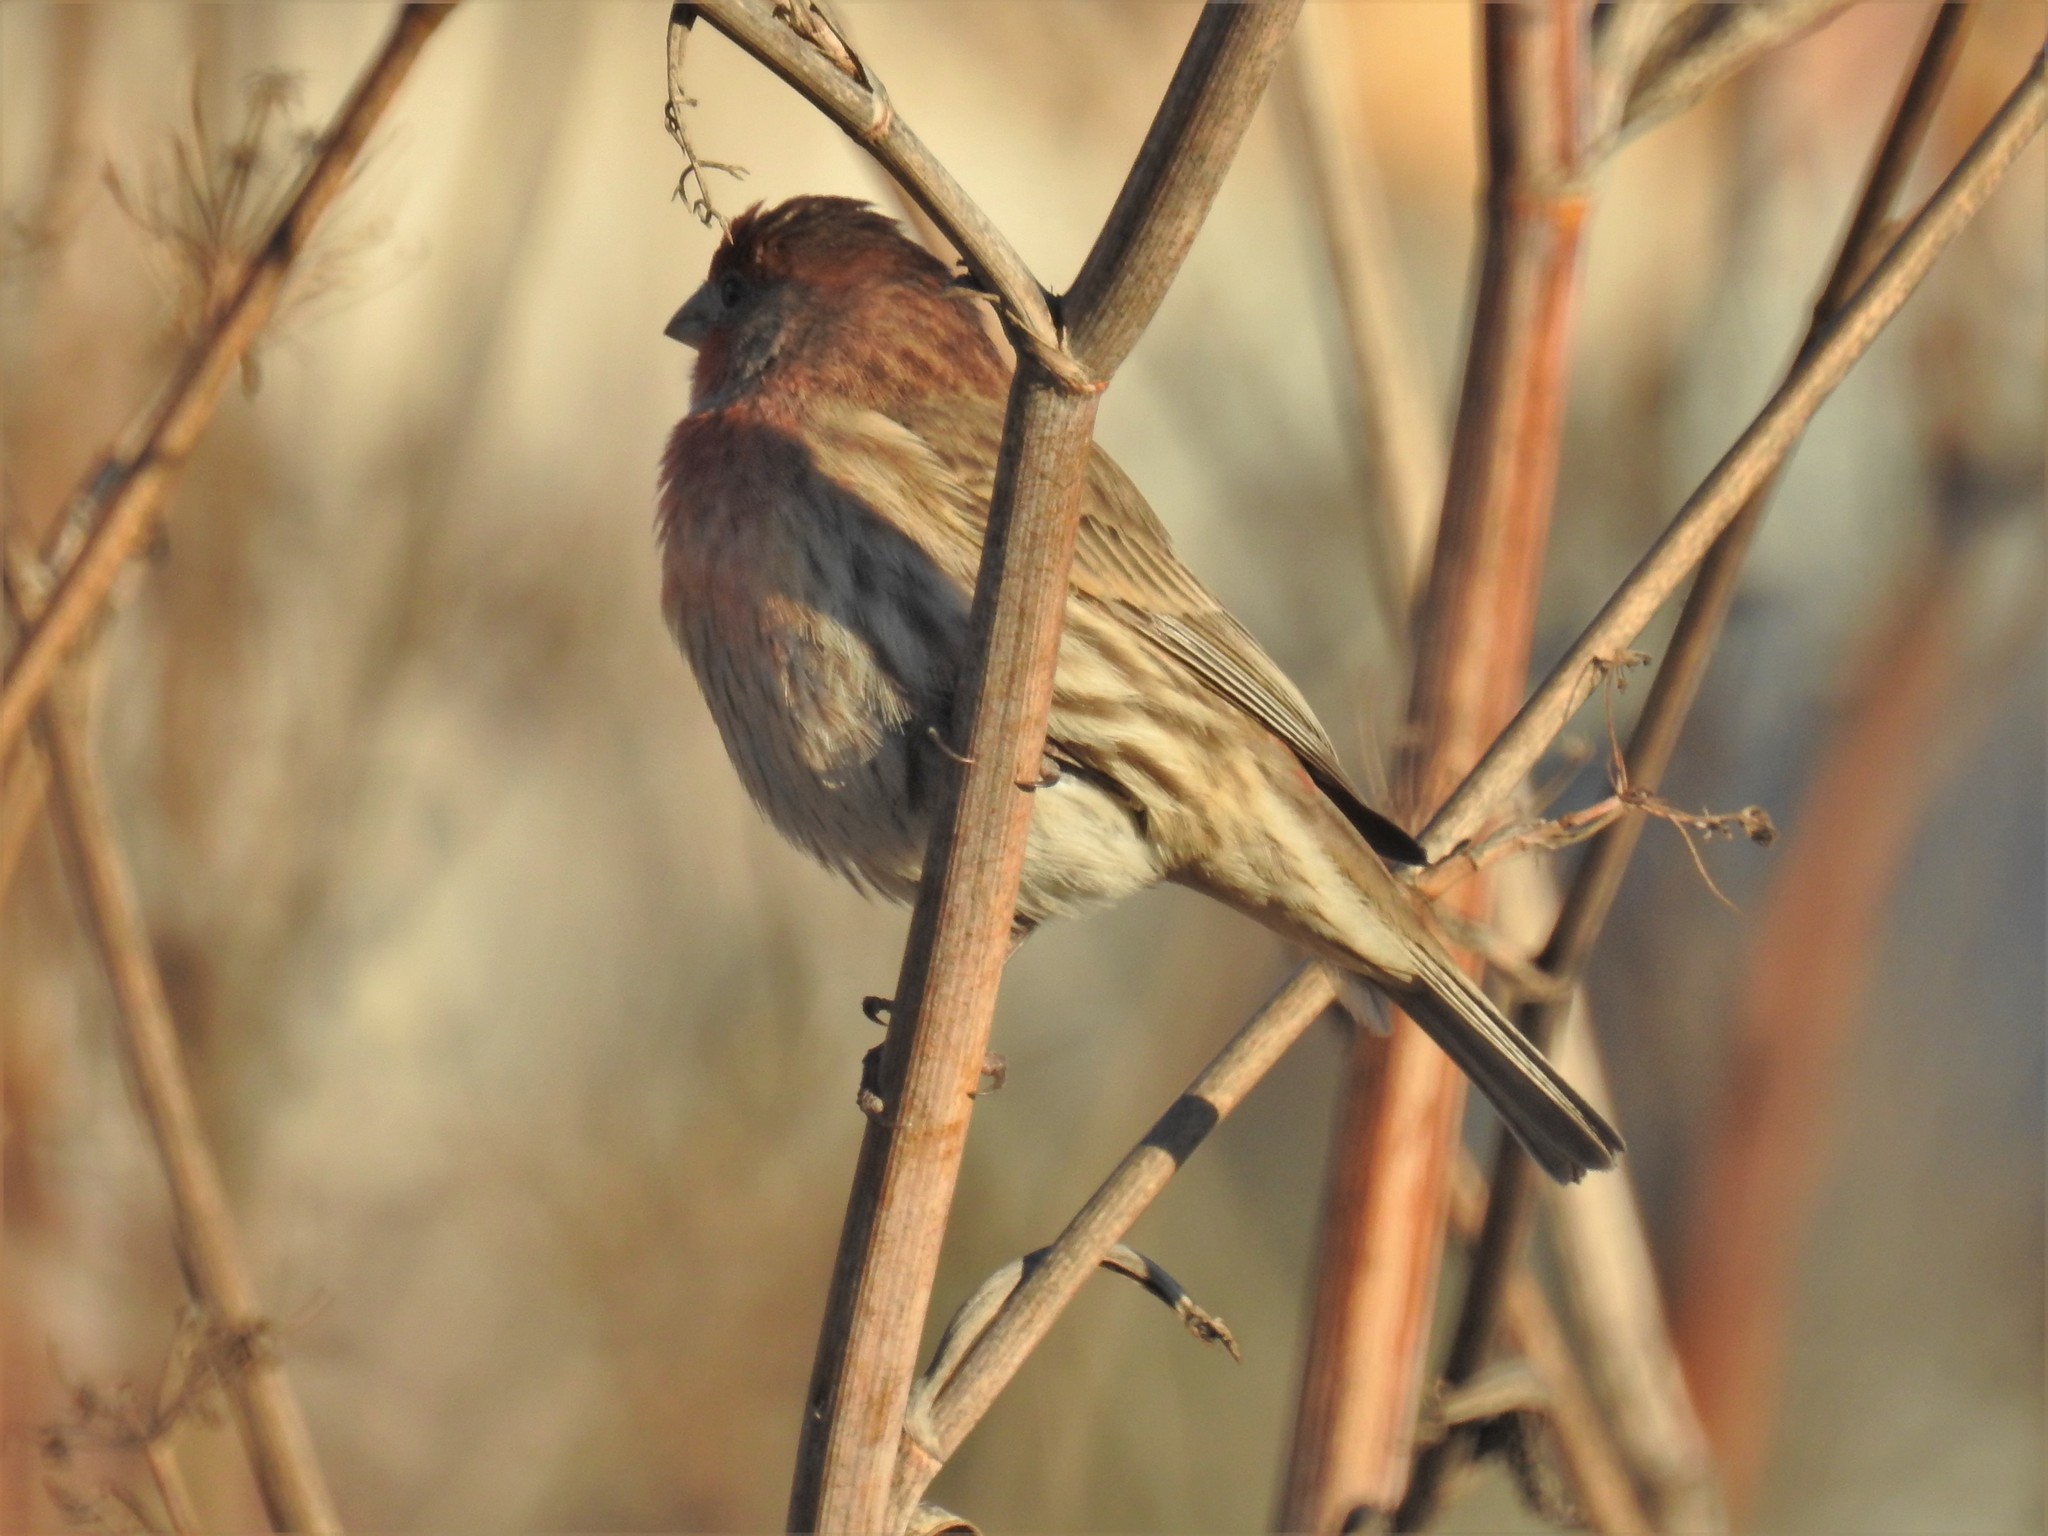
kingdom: Animalia
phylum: Chordata
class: Aves
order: Passeriformes
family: Fringillidae
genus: Haemorhous
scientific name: Haemorhous mexicanus
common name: House finch
